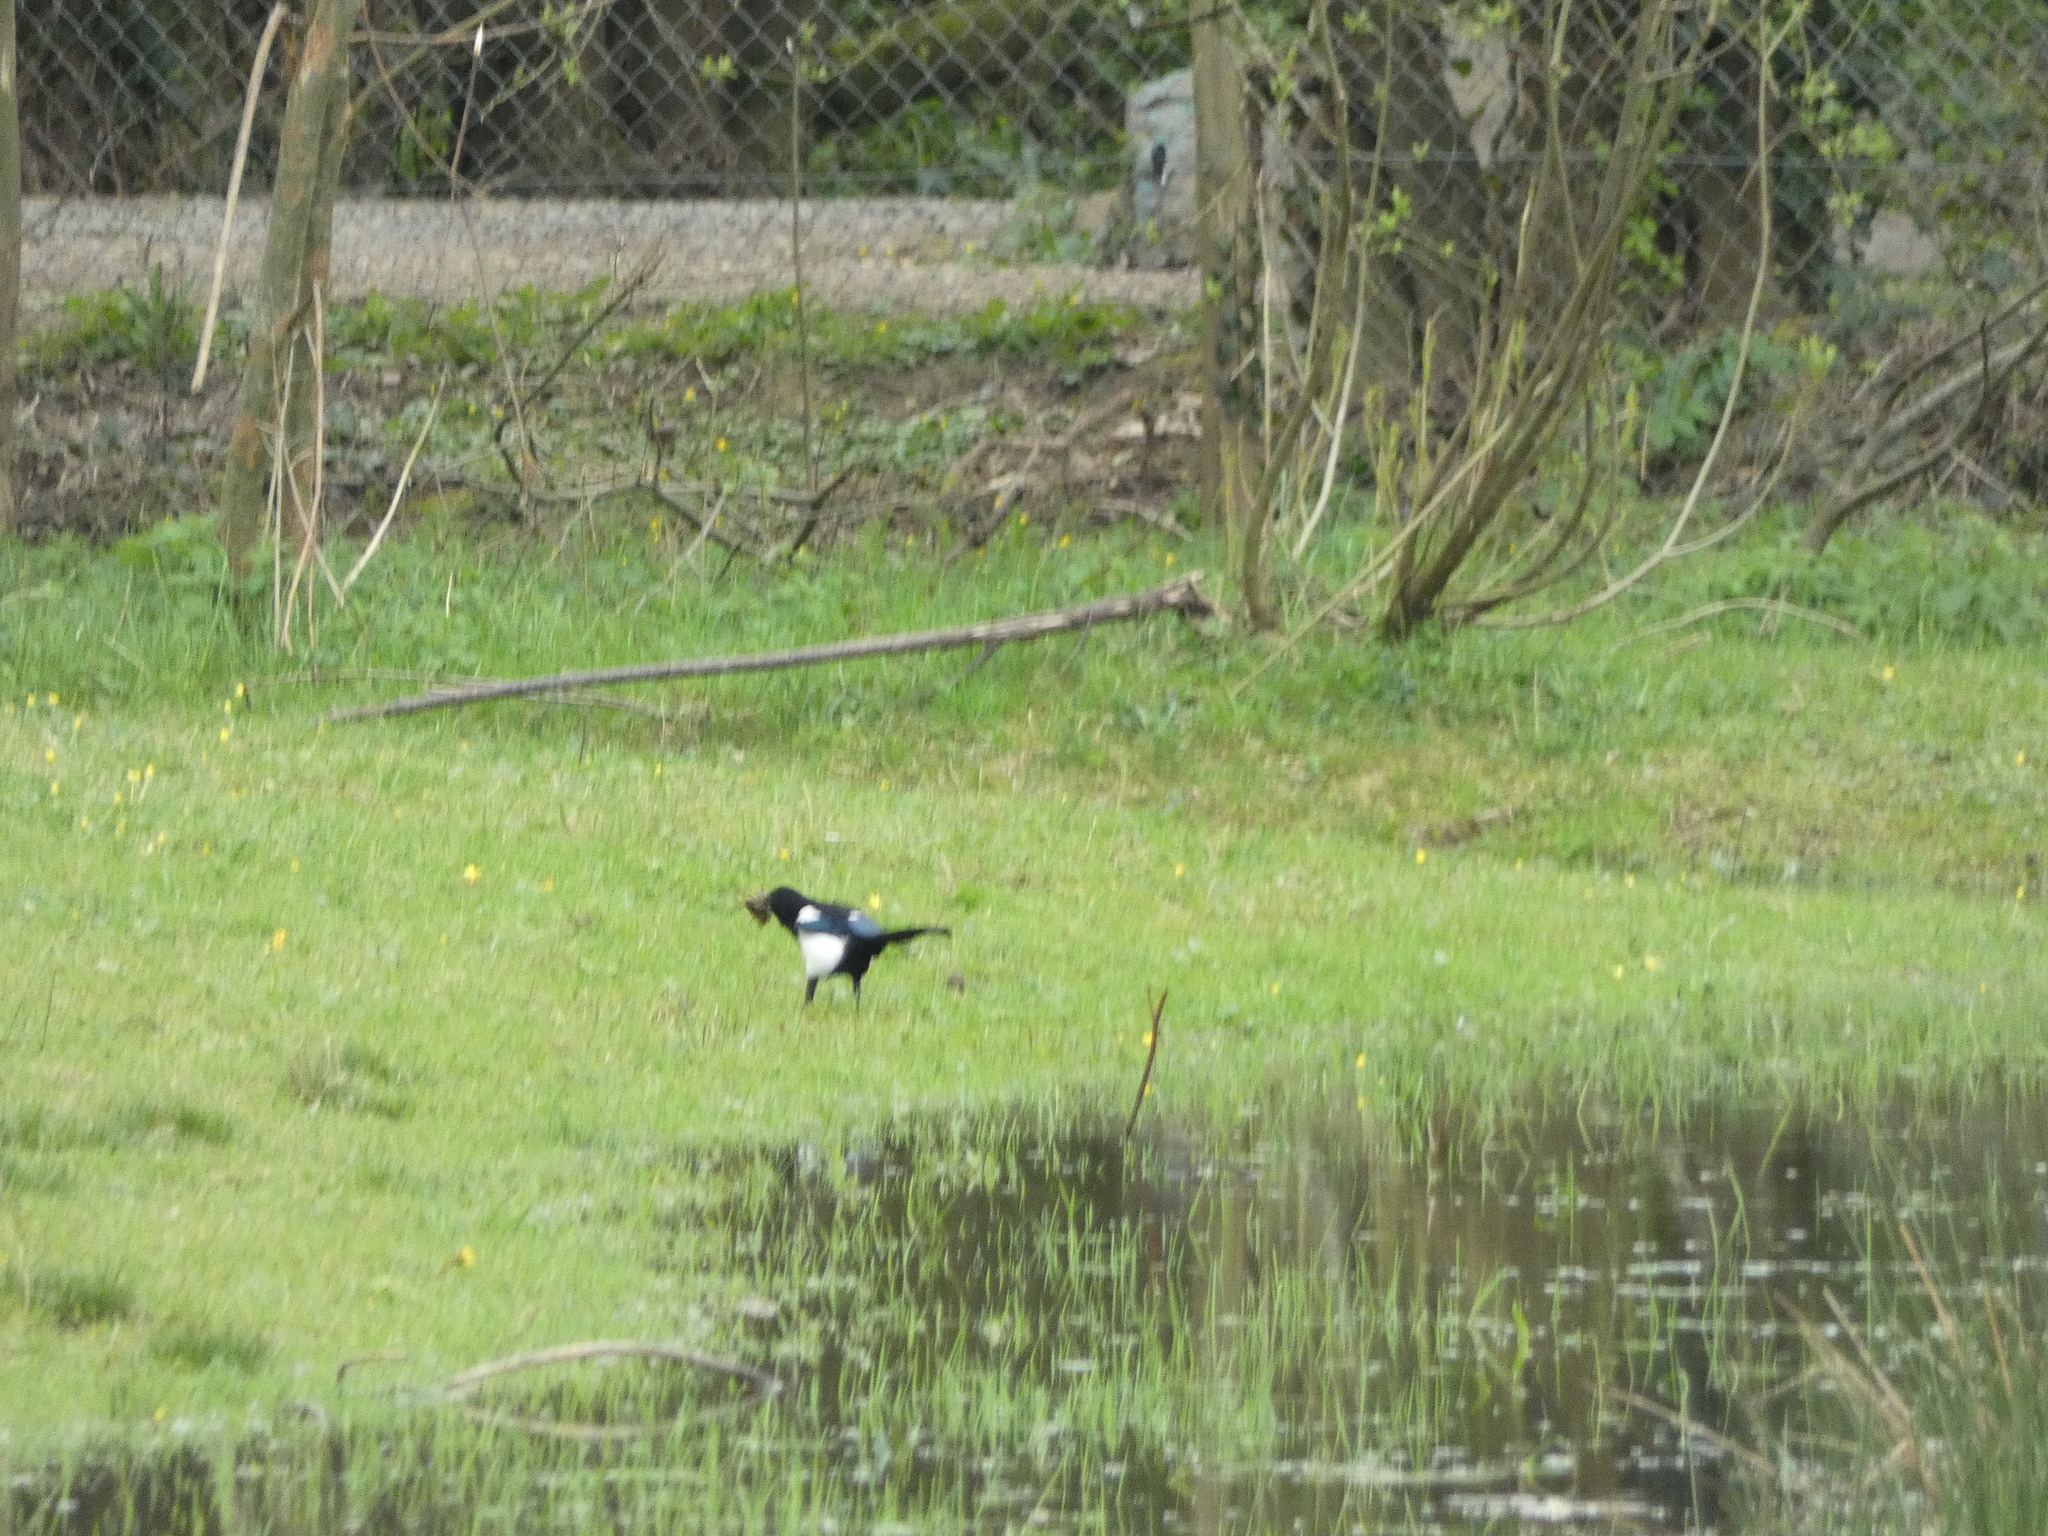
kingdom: Animalia
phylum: Chordata
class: Aves
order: Passeriformes
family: Corvidae
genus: Pica
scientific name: Pica pica
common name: Eurasian magpie
